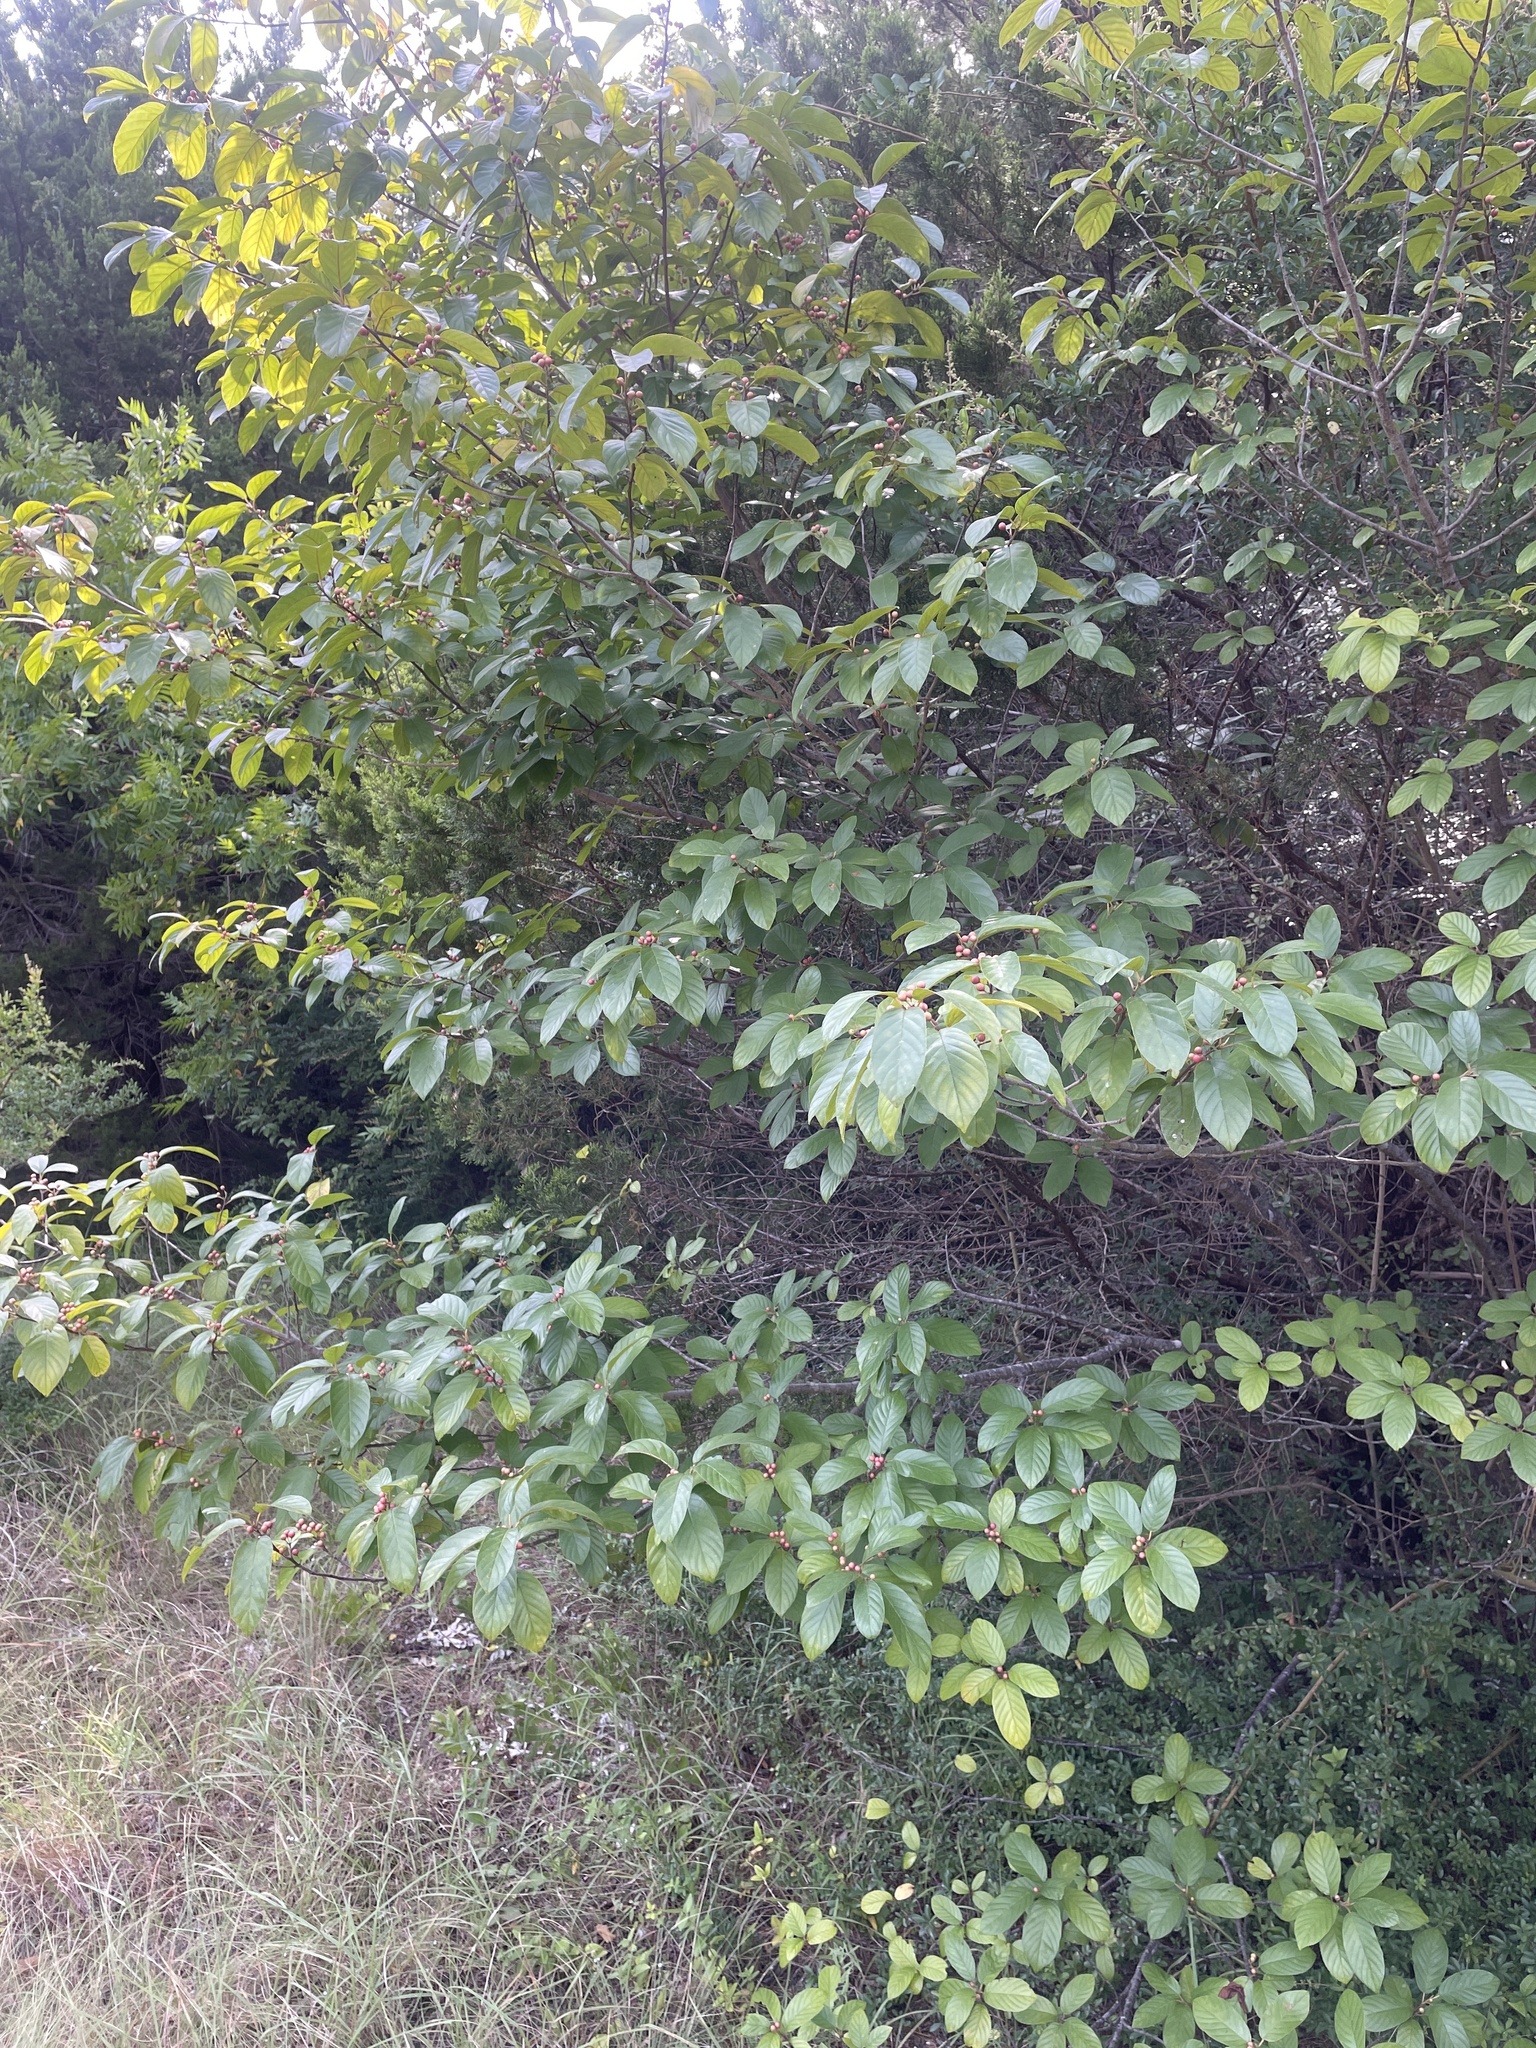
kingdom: Plantae
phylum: Tracheophyta
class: Magnoliopsida
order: Rosales
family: Rhamnaceae
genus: Frangula
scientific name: Frangula caroliniana
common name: Carolina buckthorn
